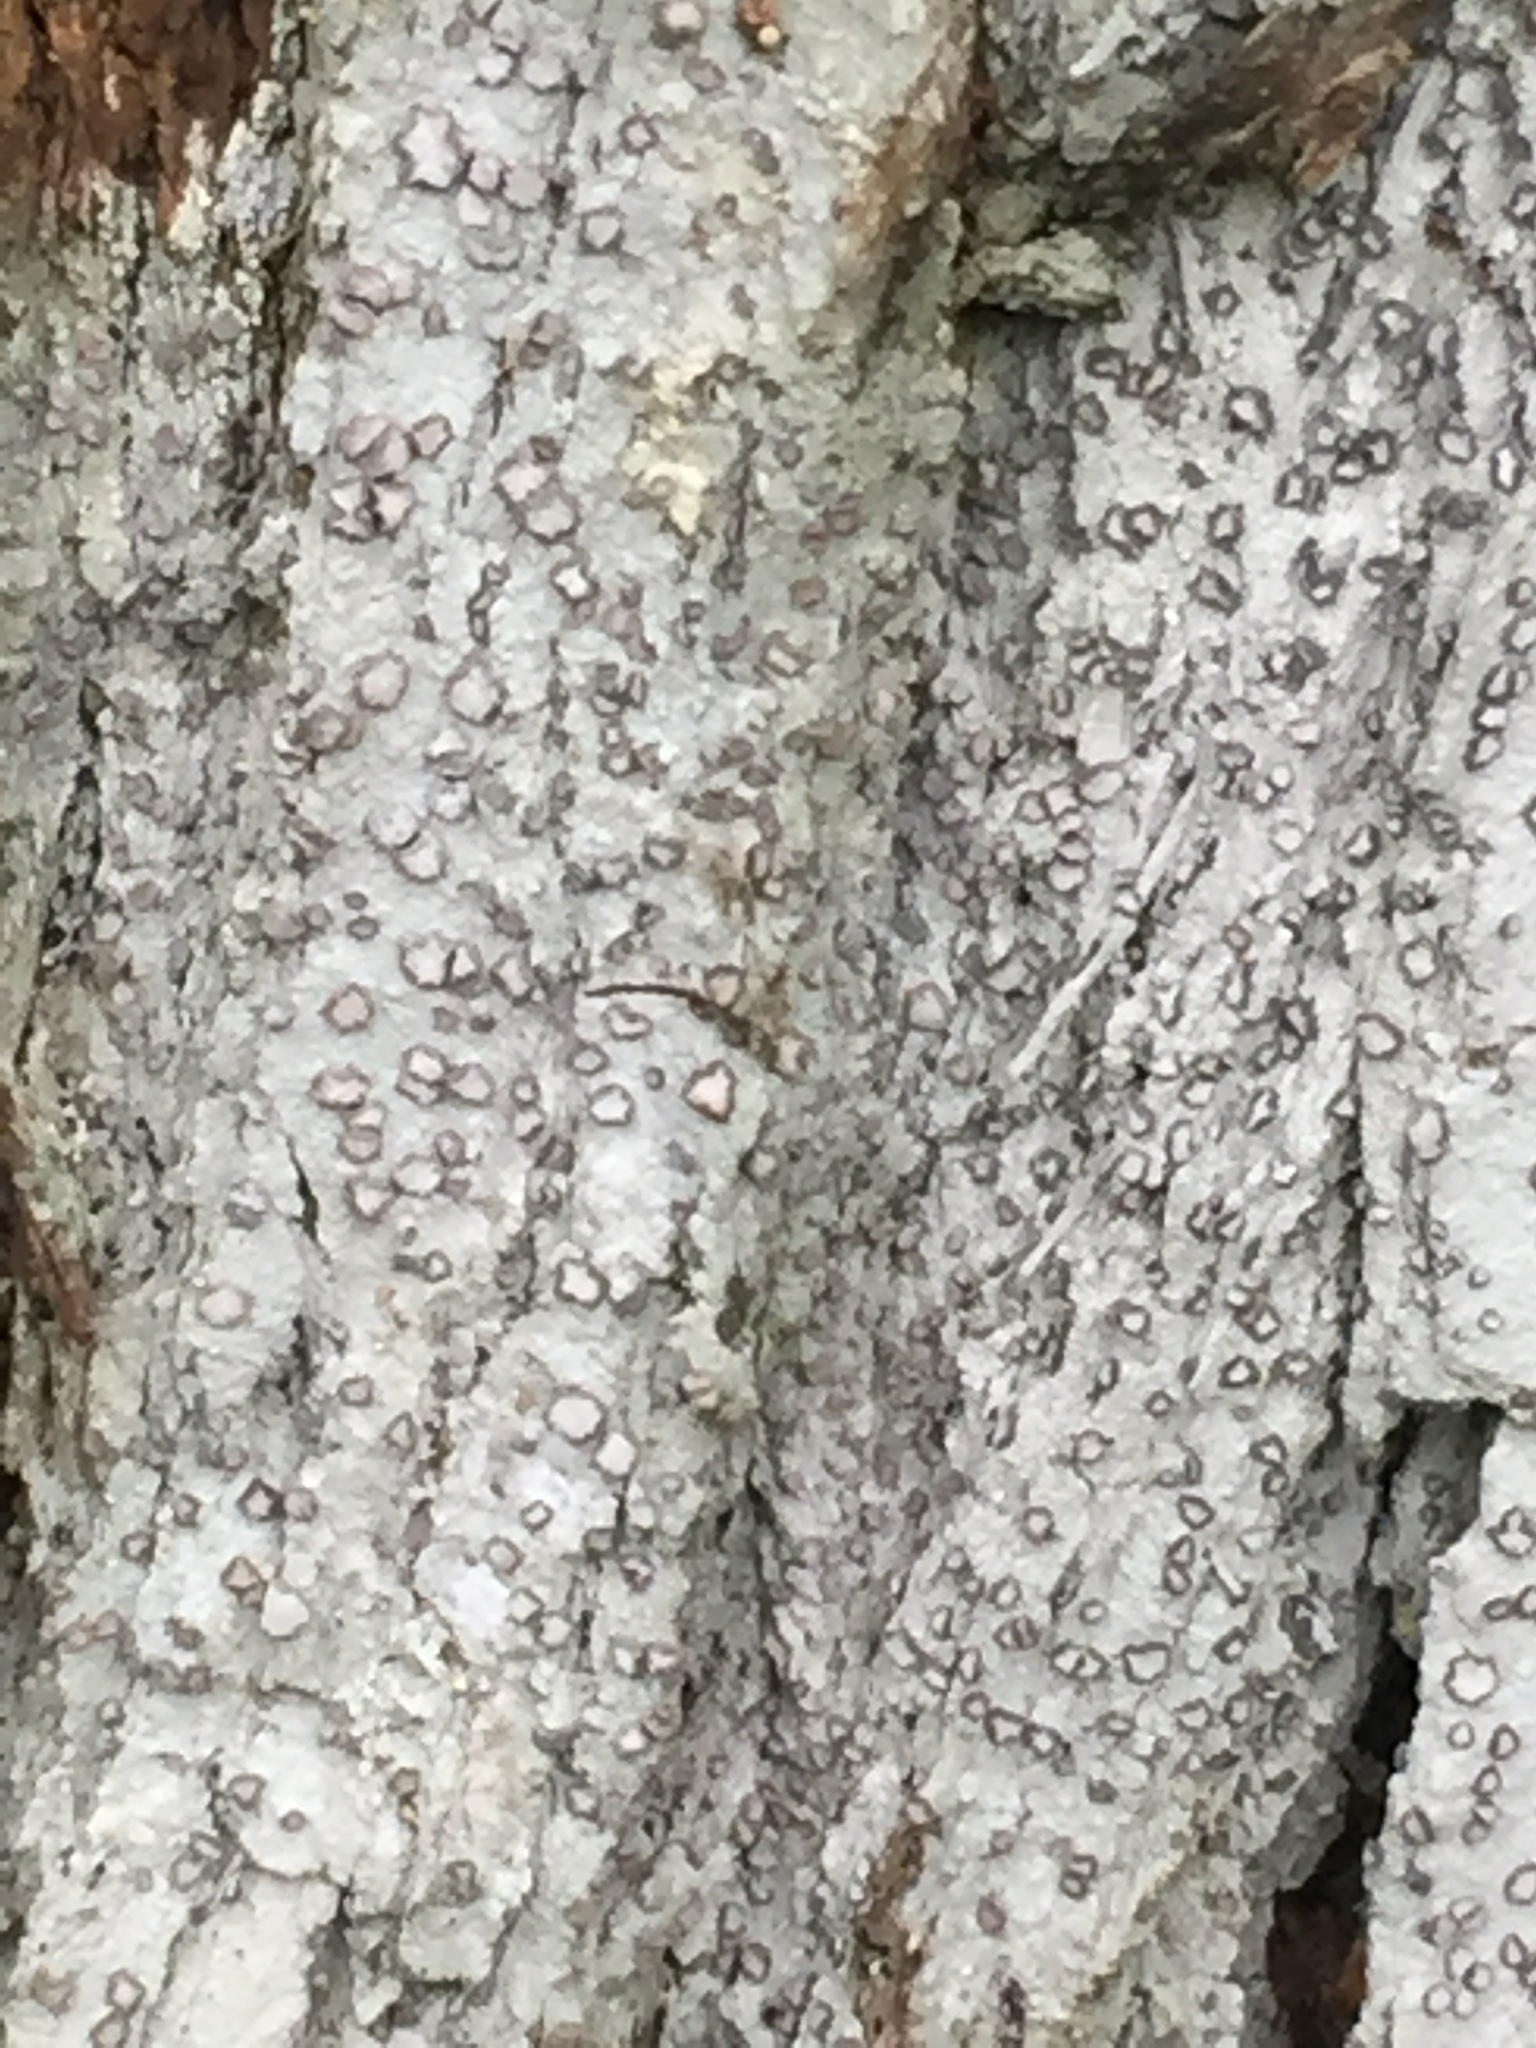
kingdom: Fungi
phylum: Ascomycota
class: Arthoniomycetes
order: Arthoniales
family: Roccellaceae
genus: Lecanactis
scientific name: Lecanactis subfarinosa
